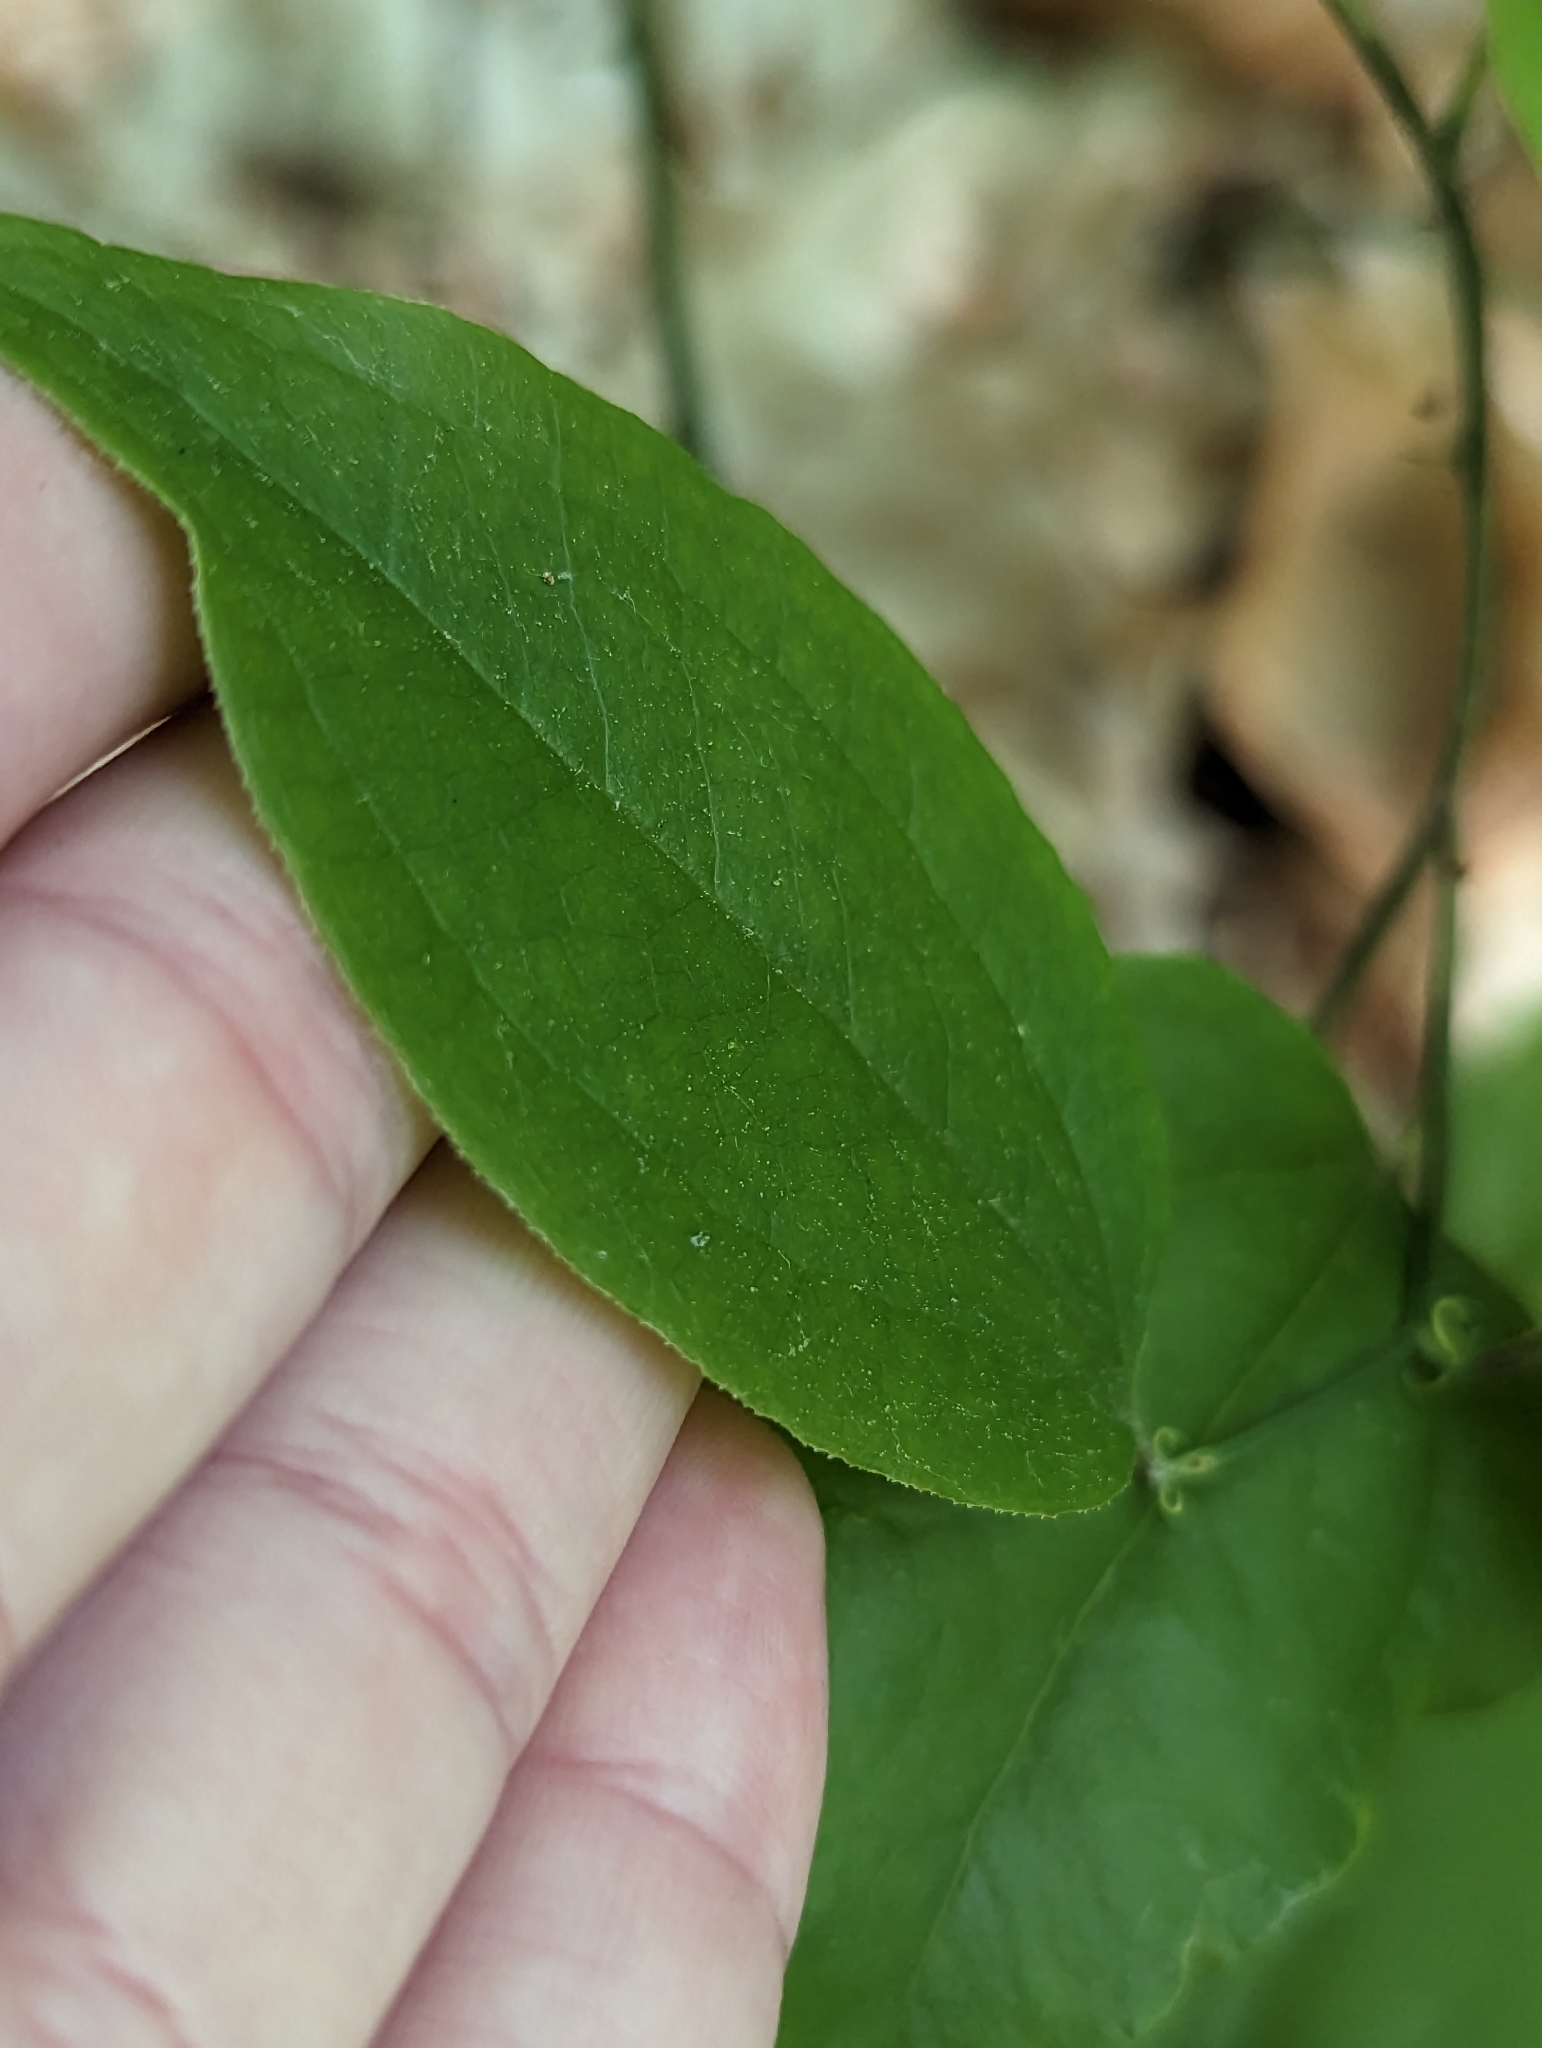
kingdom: Plantae
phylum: Tracheophyta
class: Liliopsida
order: Liliales
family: Smilacaceae
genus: Smilax
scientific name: Smilax rotundifolia
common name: Bullbriar
